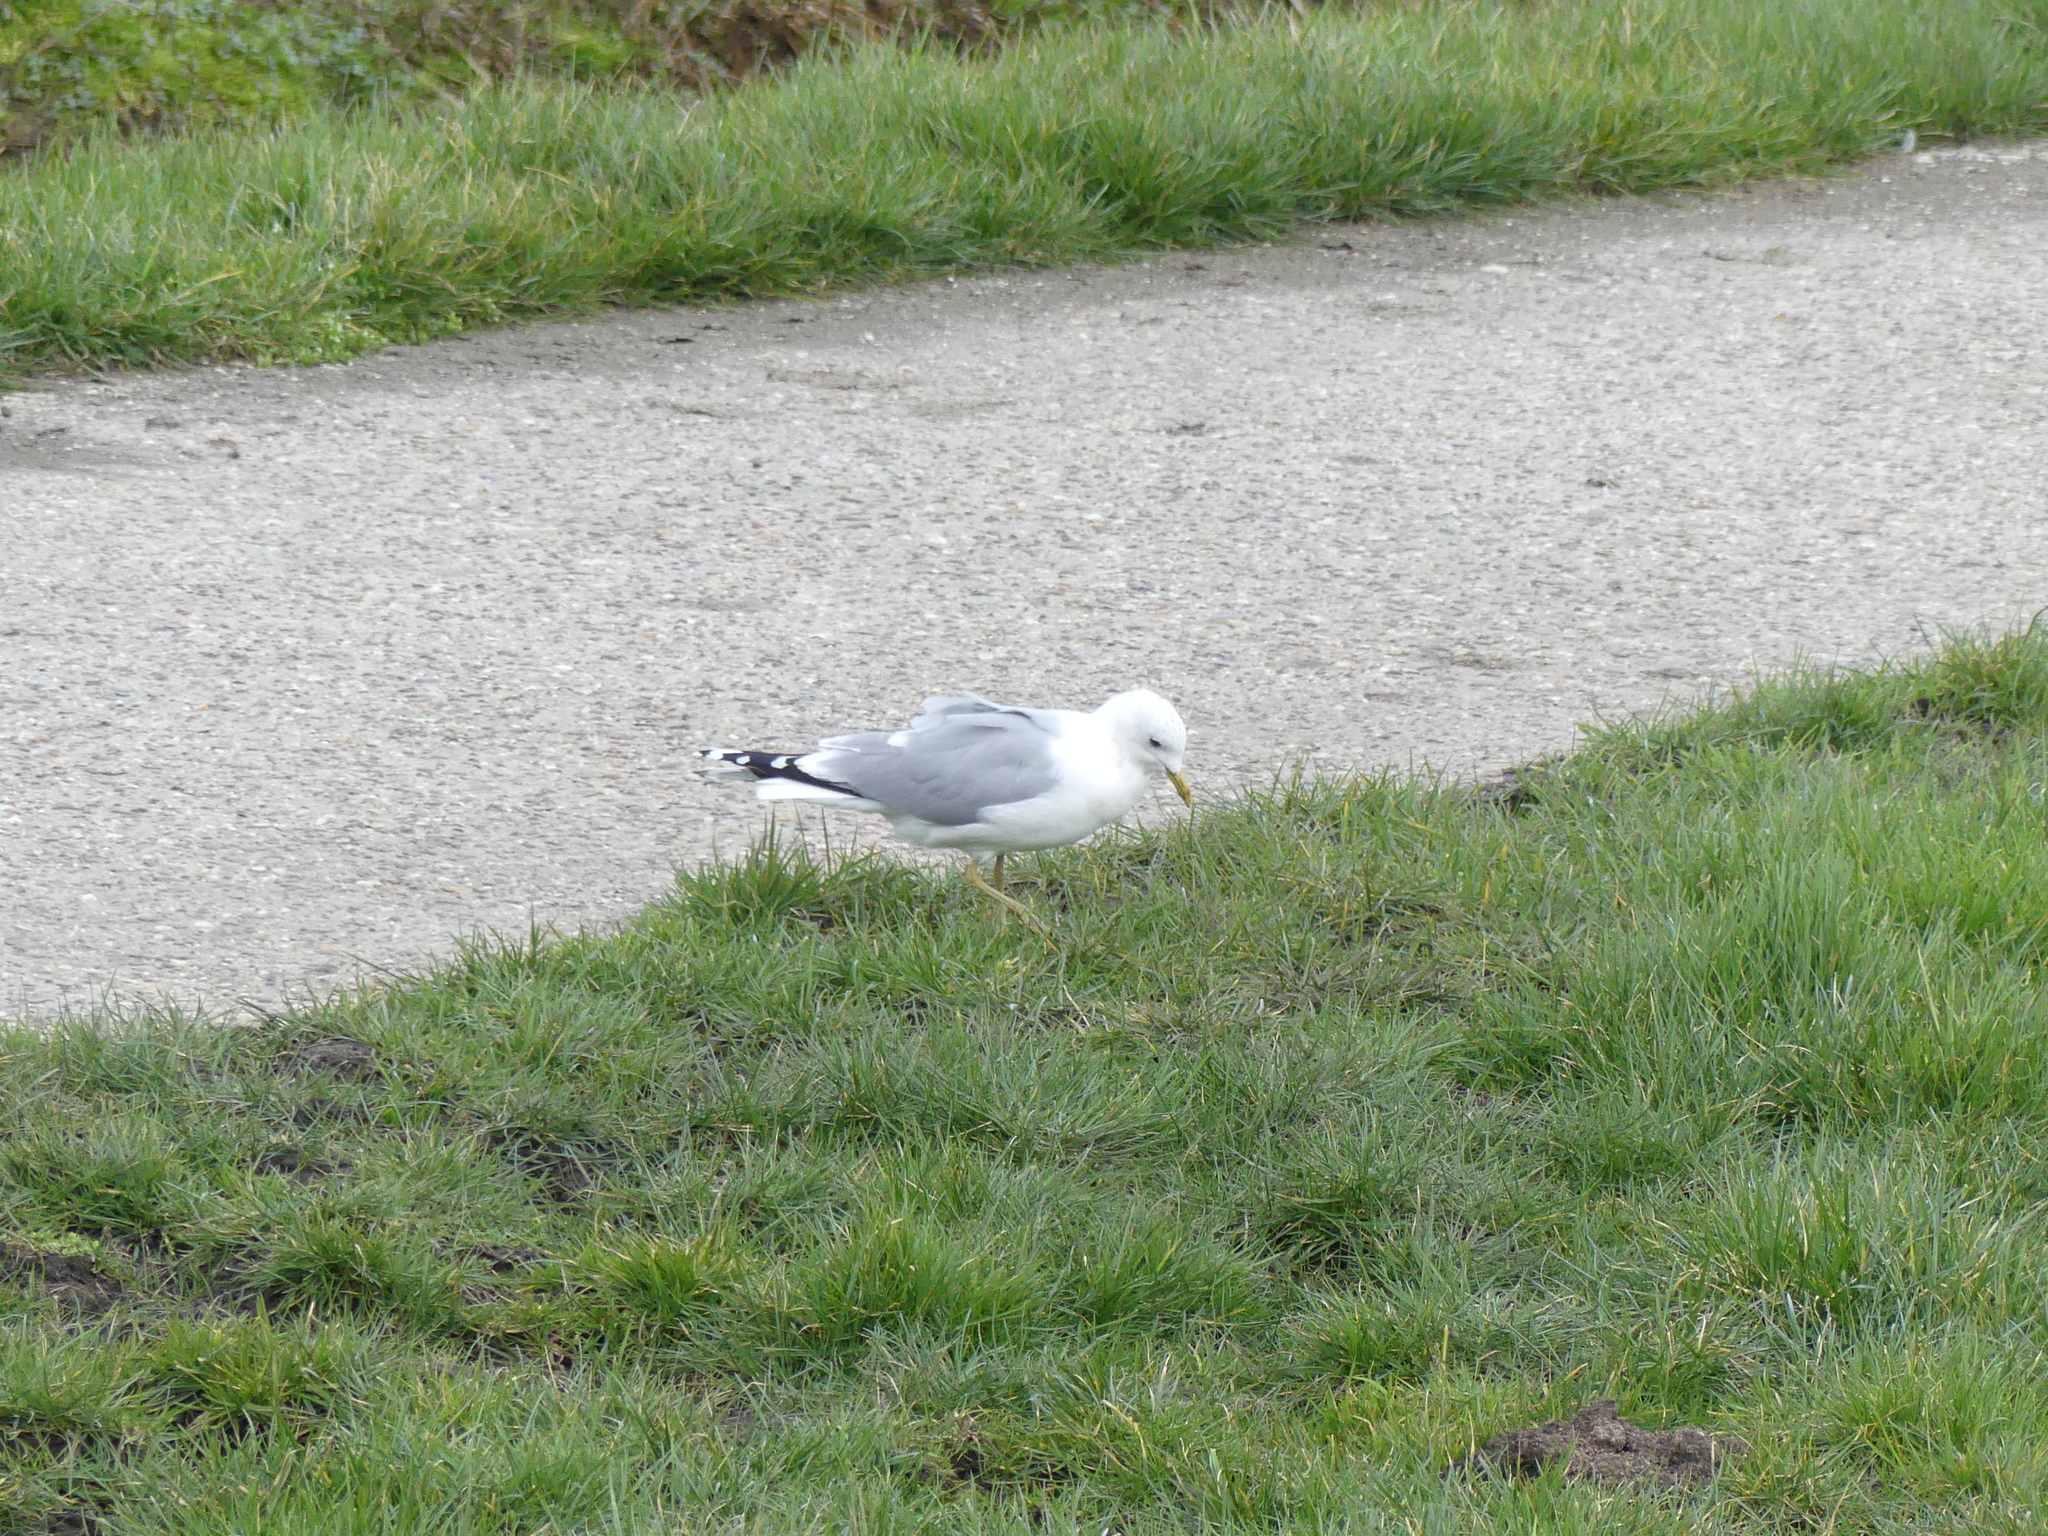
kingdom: Animalia
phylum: Chordata
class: Aves
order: Charadriiformes
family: Laridae
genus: Larus
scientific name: Larus canus
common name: Mew gull
